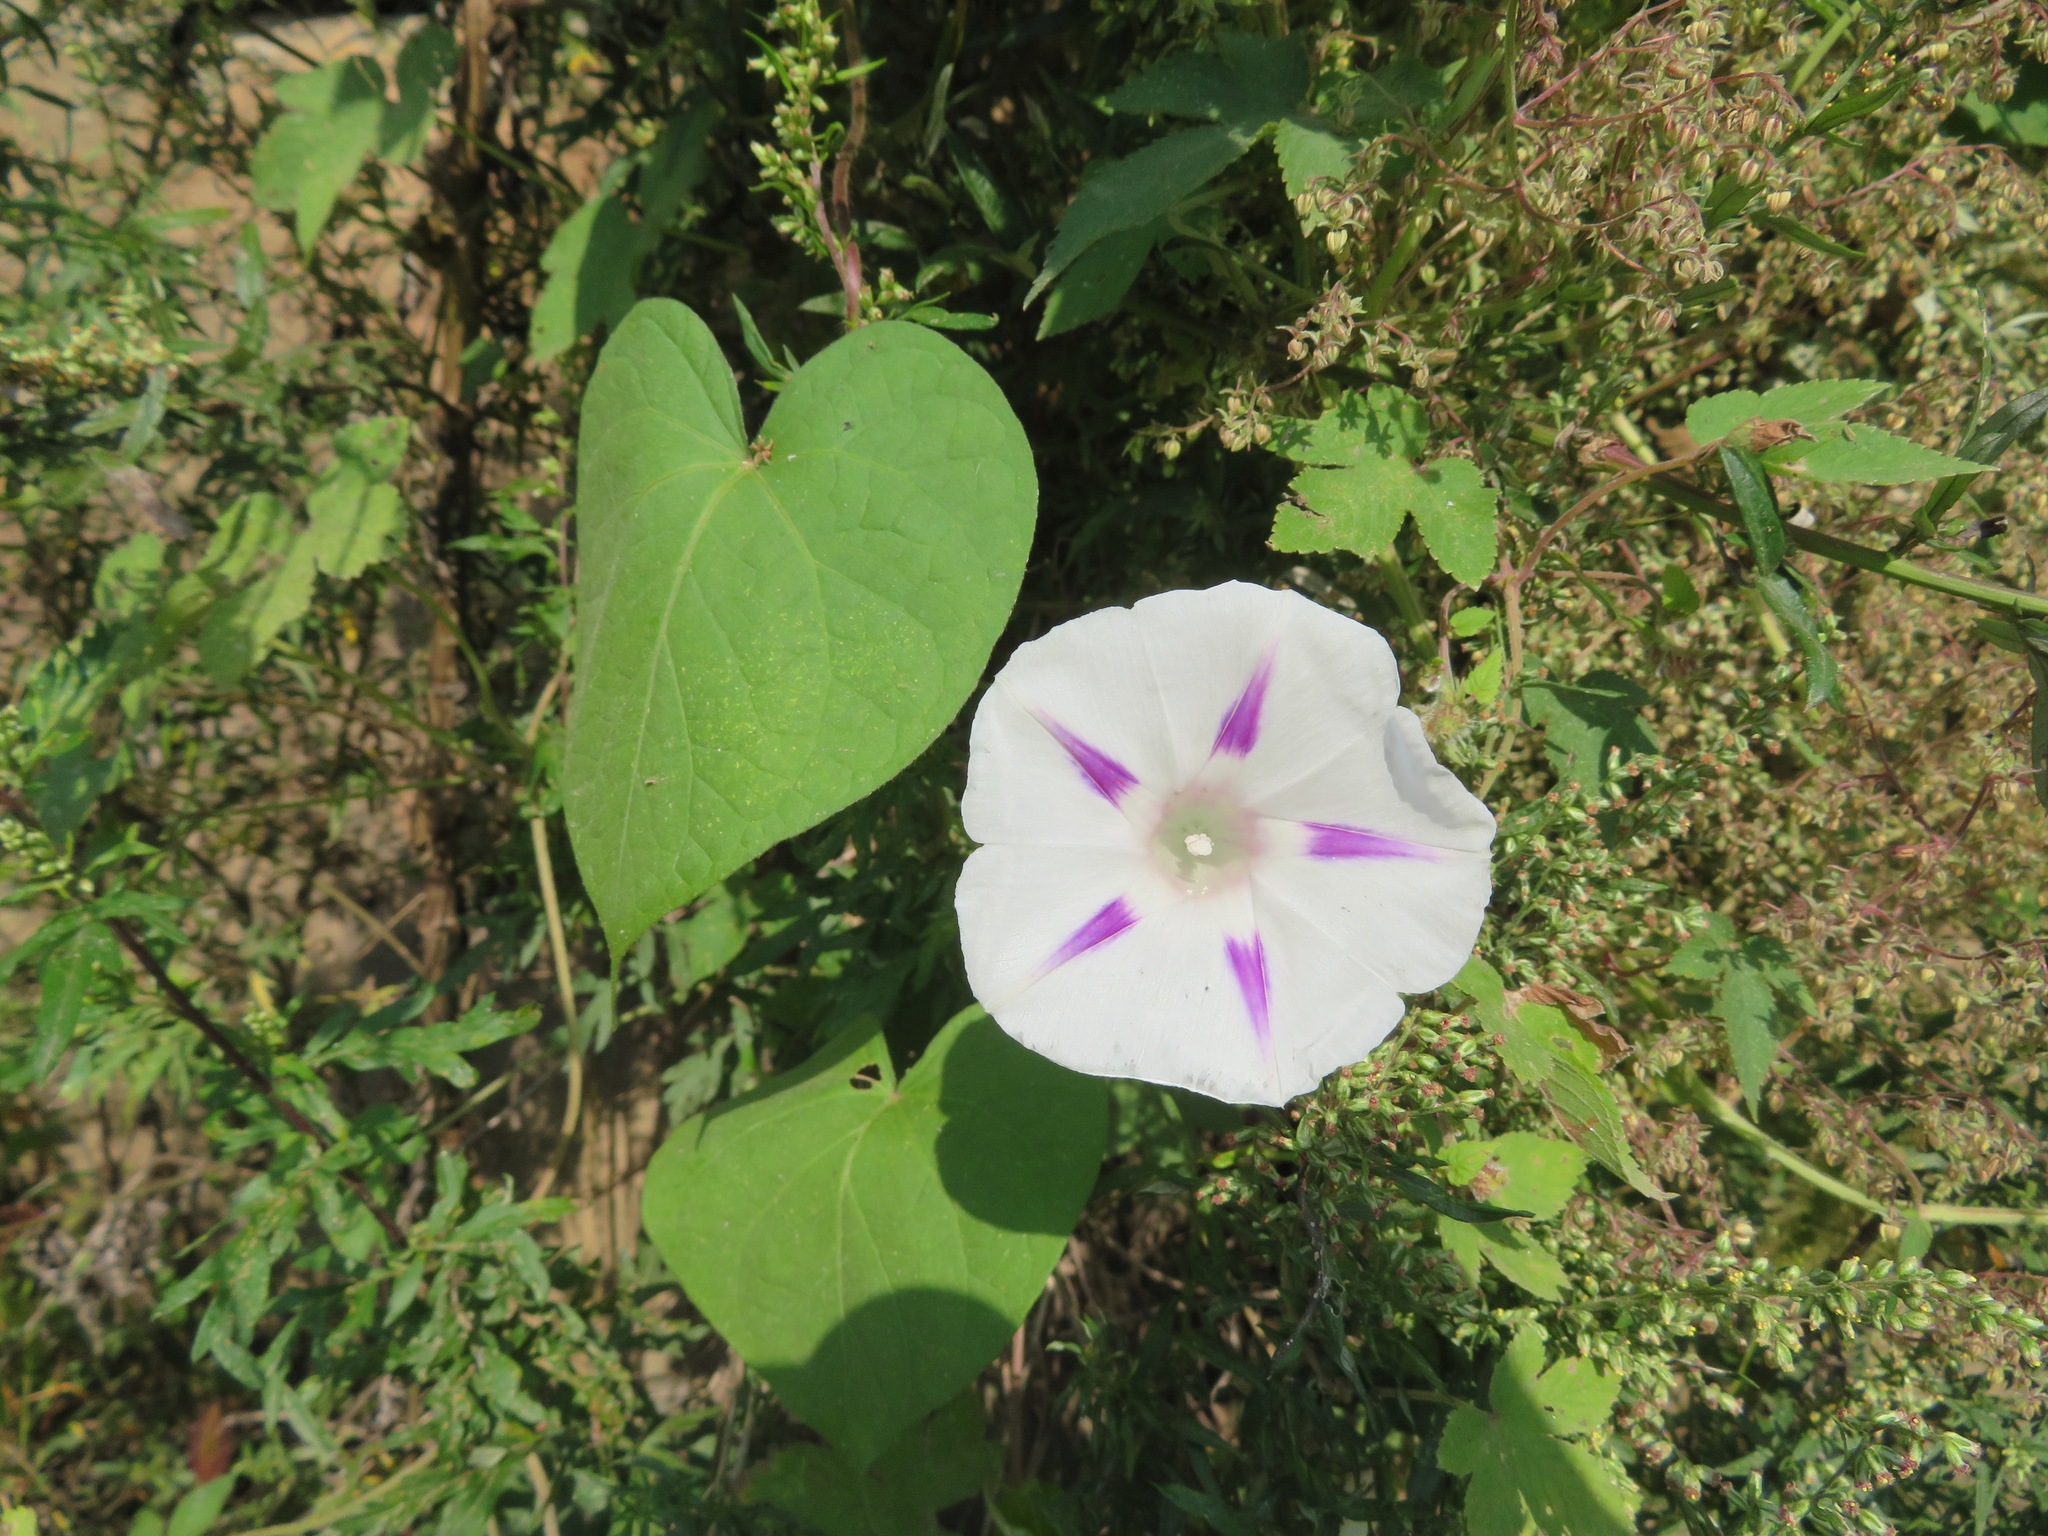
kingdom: Plantae
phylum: Tracheophyta
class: Magnoliopsida
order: Solanales
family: Convolvulaceae
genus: Ipomoea
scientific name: Ipomoea purpurea
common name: Common morning-glory
